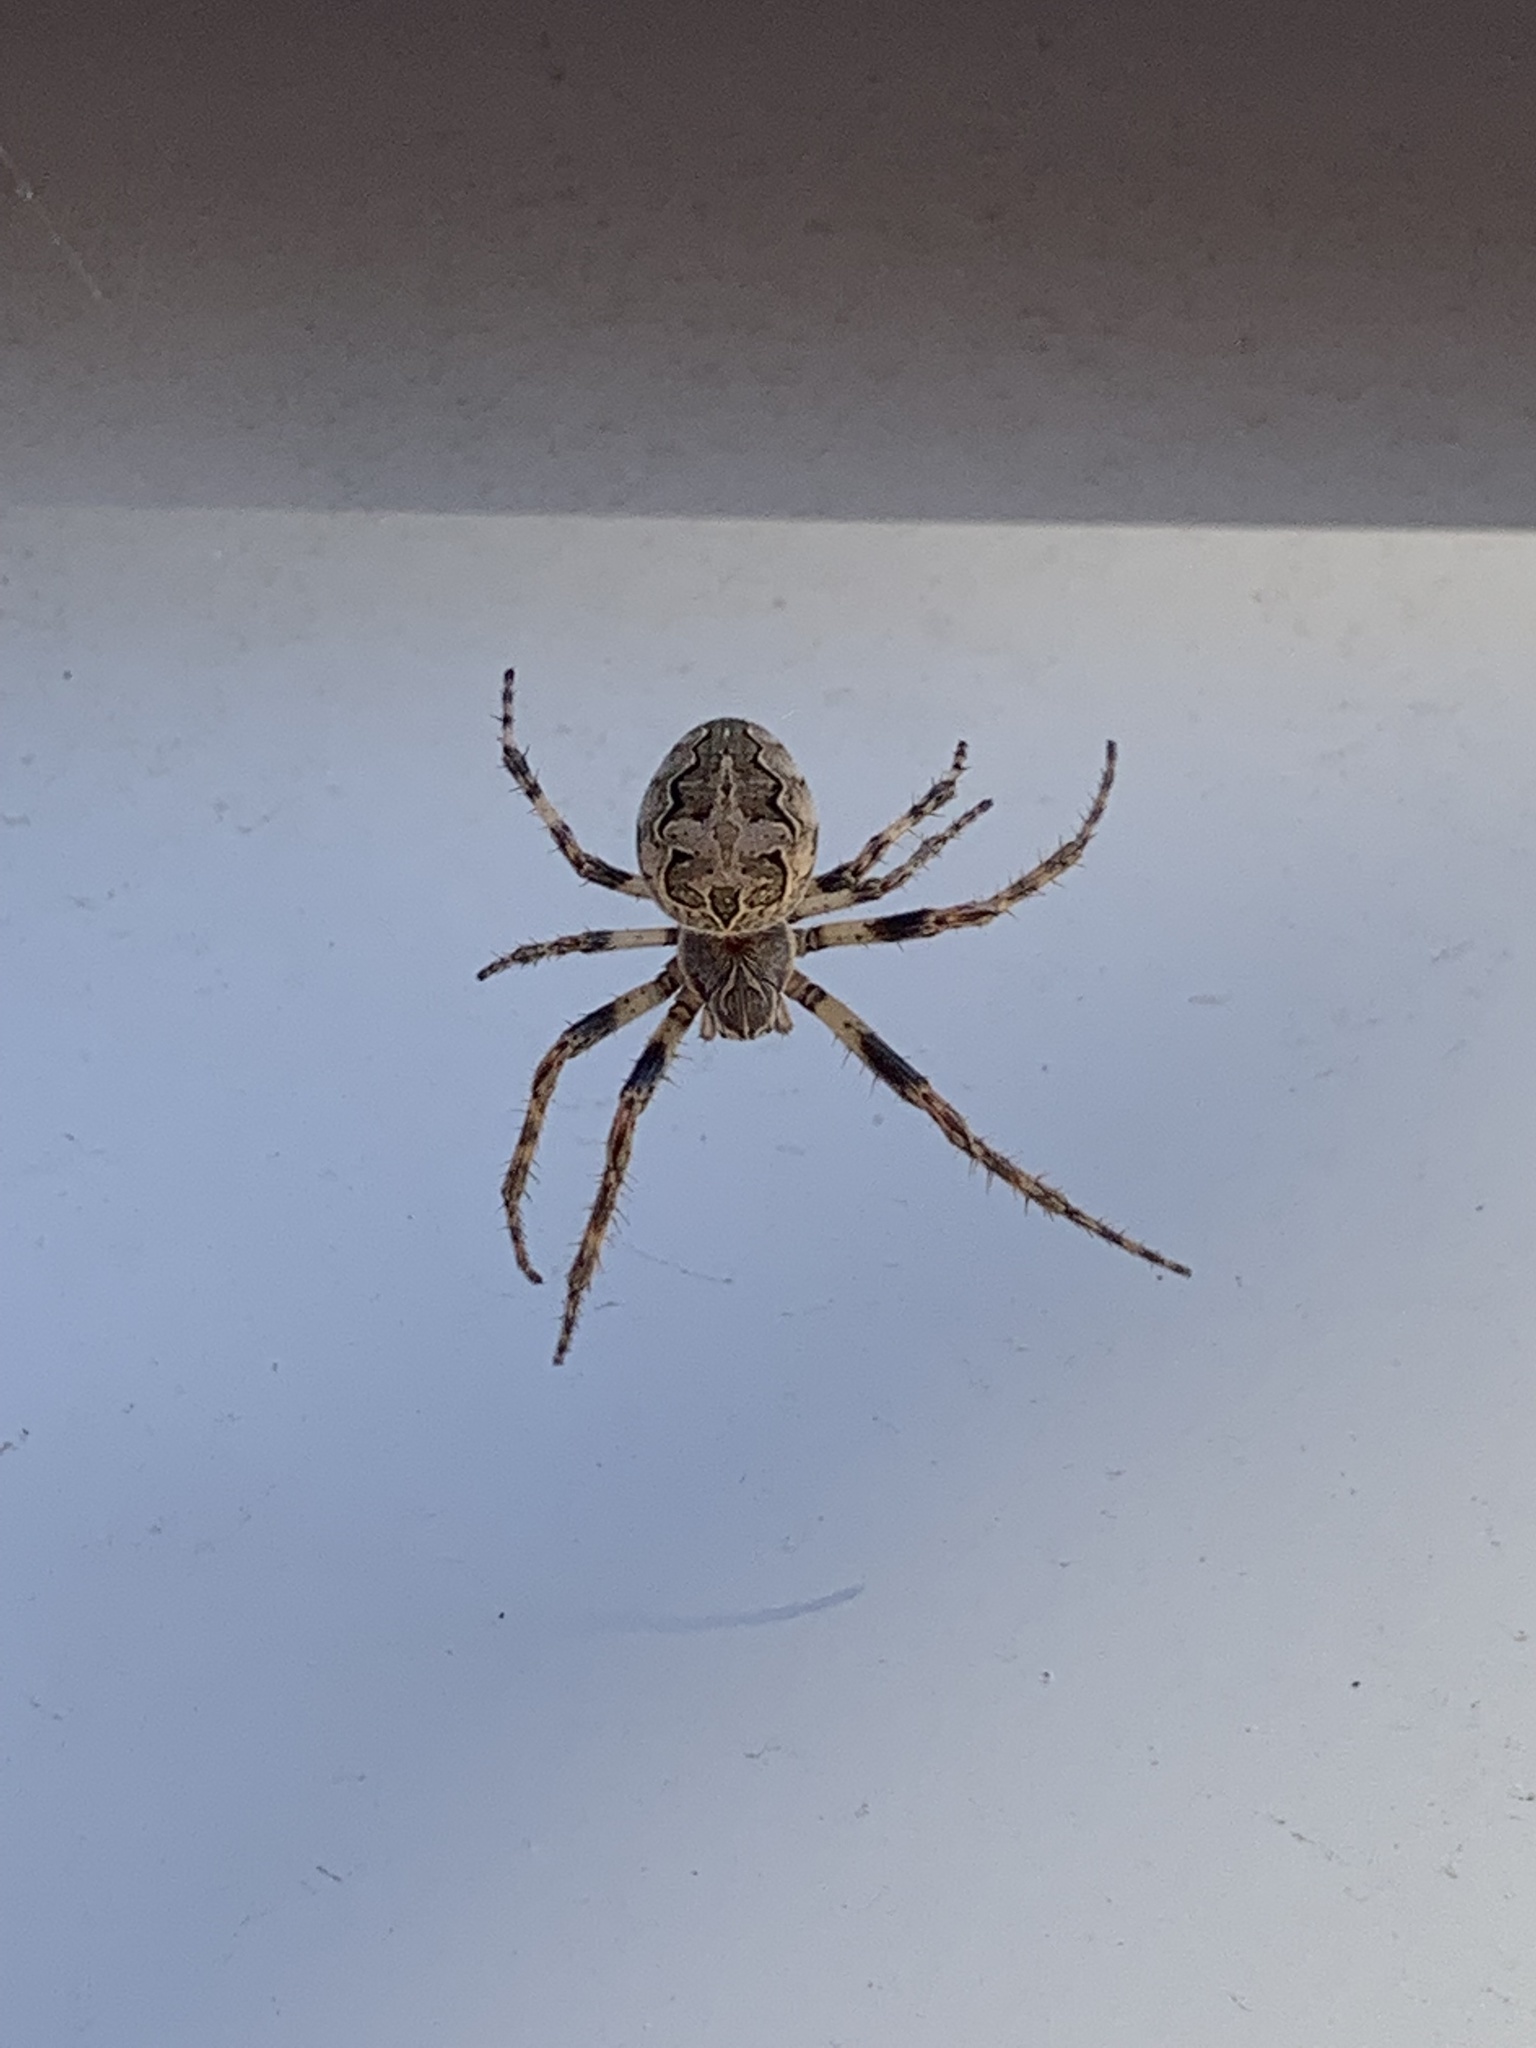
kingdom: Animalia
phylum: Arthropoda
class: Arachnida
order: Araneae
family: Araneidae
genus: Larinioides
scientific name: Larinioides sclopetarius
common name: Bridge orbweaver
